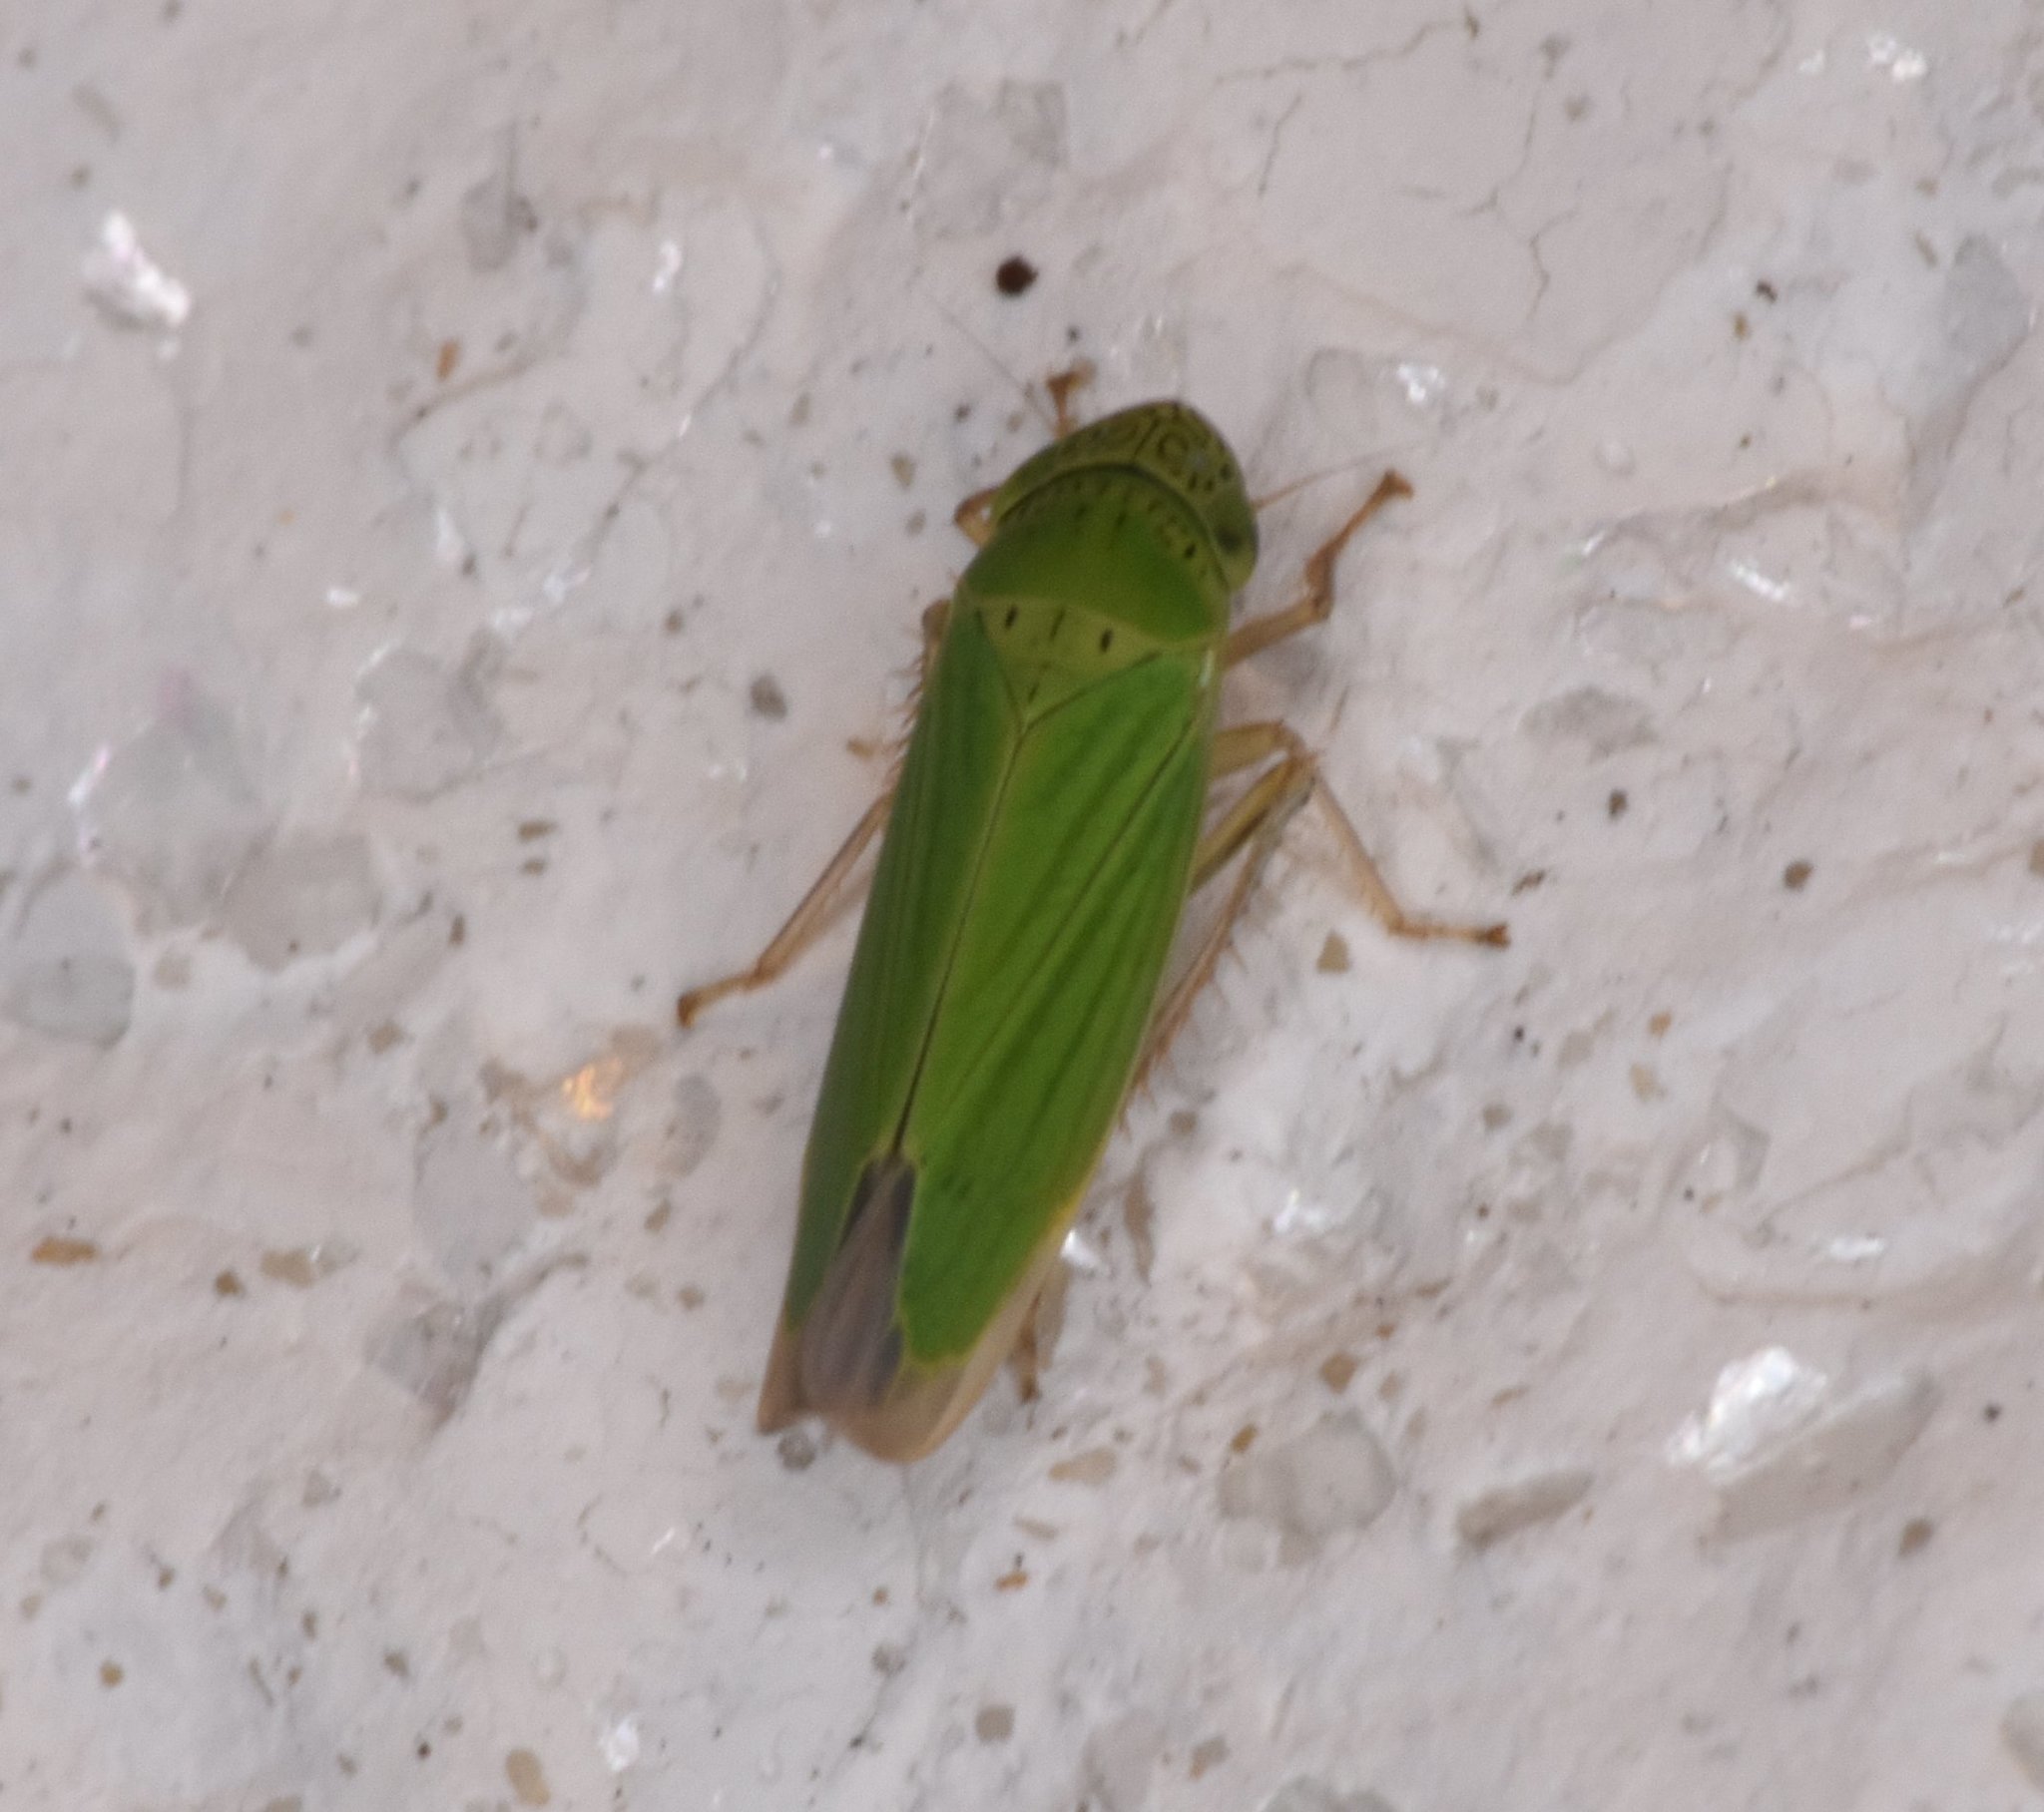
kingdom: Animalia
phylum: Arthropoda
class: Insecta
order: Hemiptera
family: Cicadellidae
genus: Hortensia
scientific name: Hortensia similis
